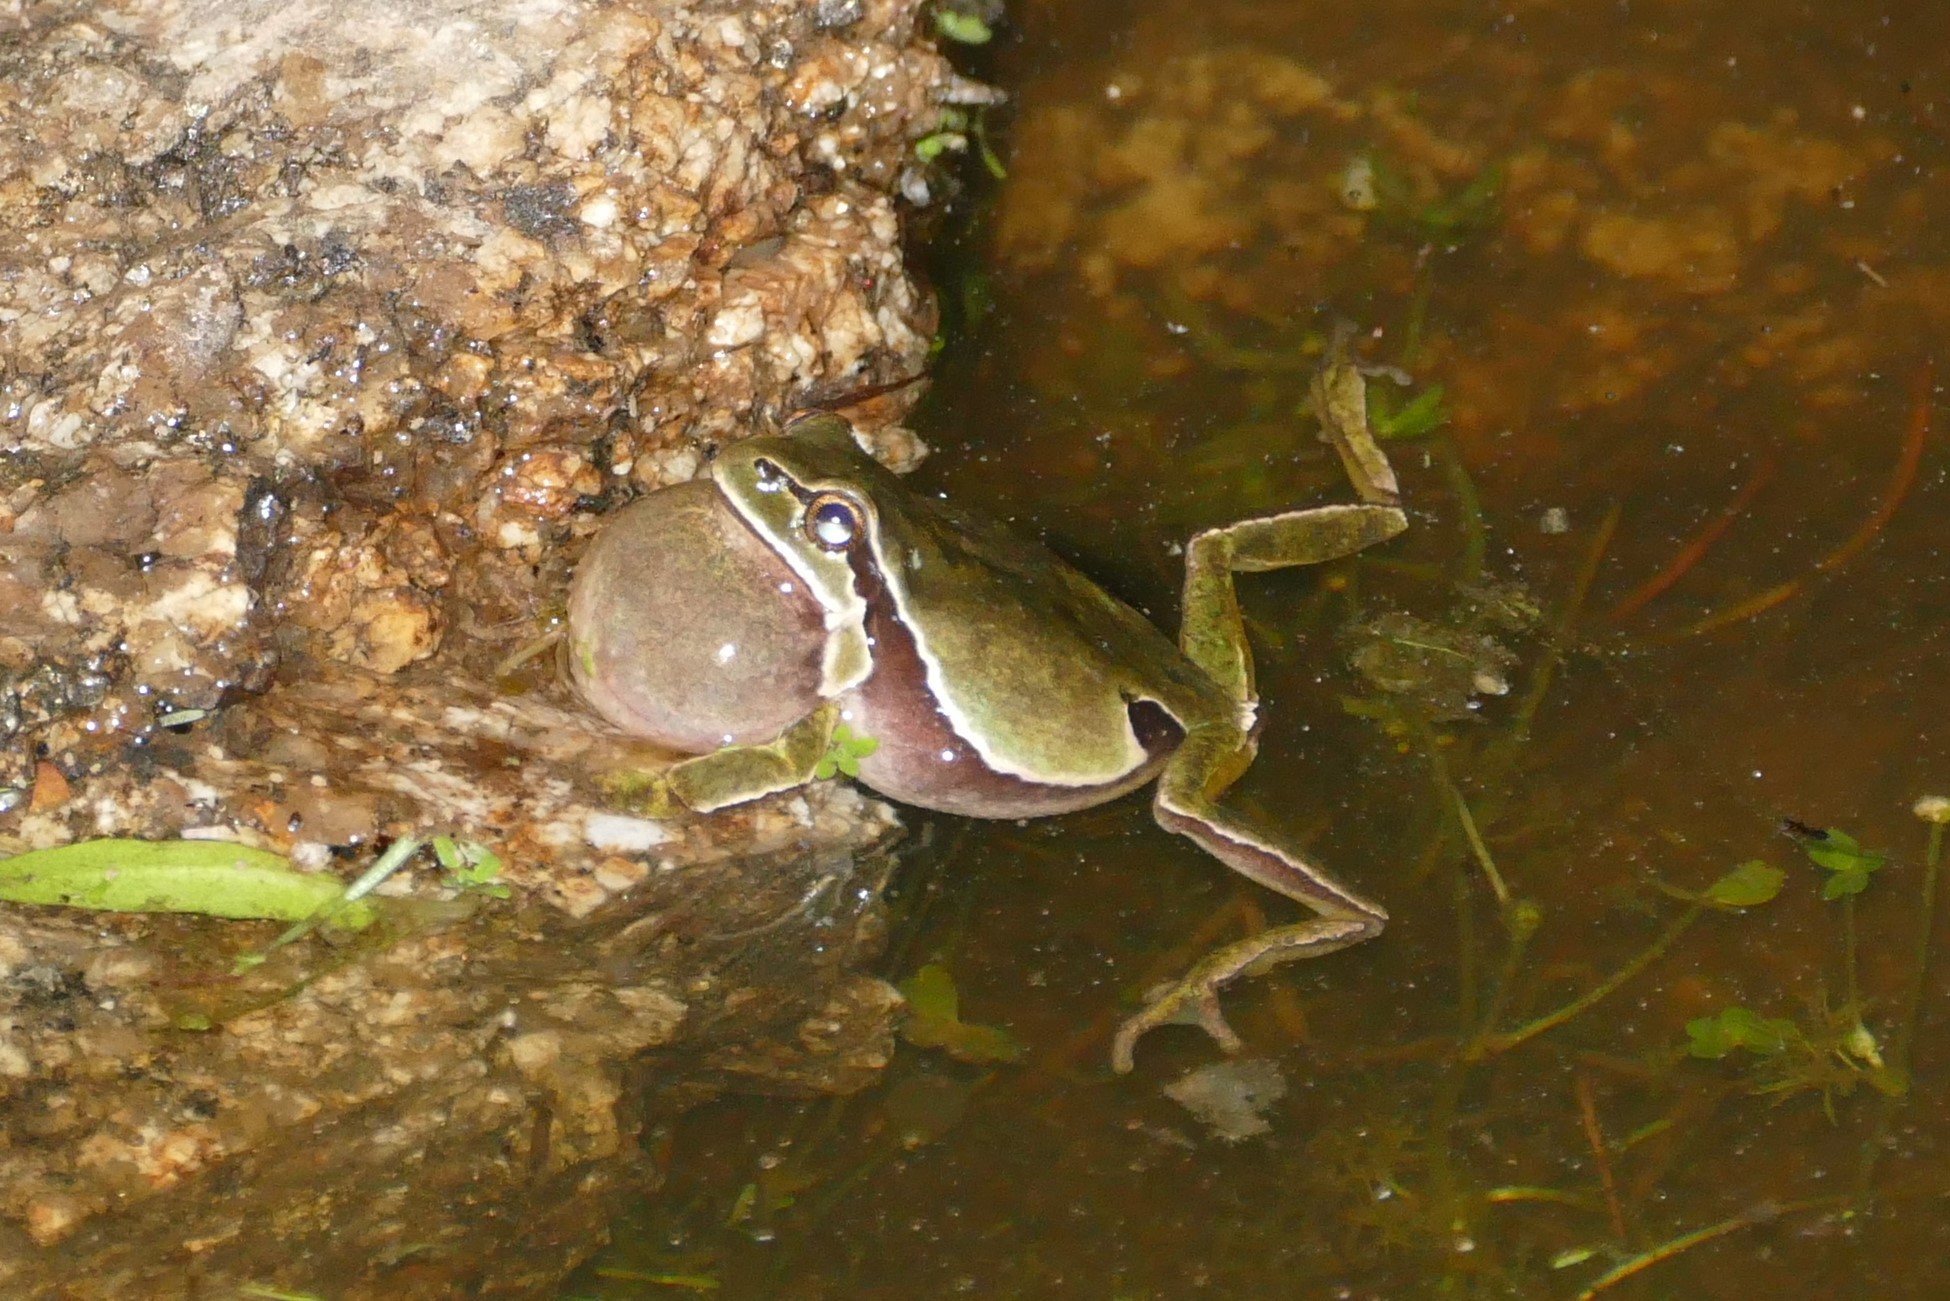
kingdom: Animalia
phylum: Chordata
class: Amphibia
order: Anura
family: Hylidae
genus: Hyla
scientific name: Hyla molleri
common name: Iberian tree frog
